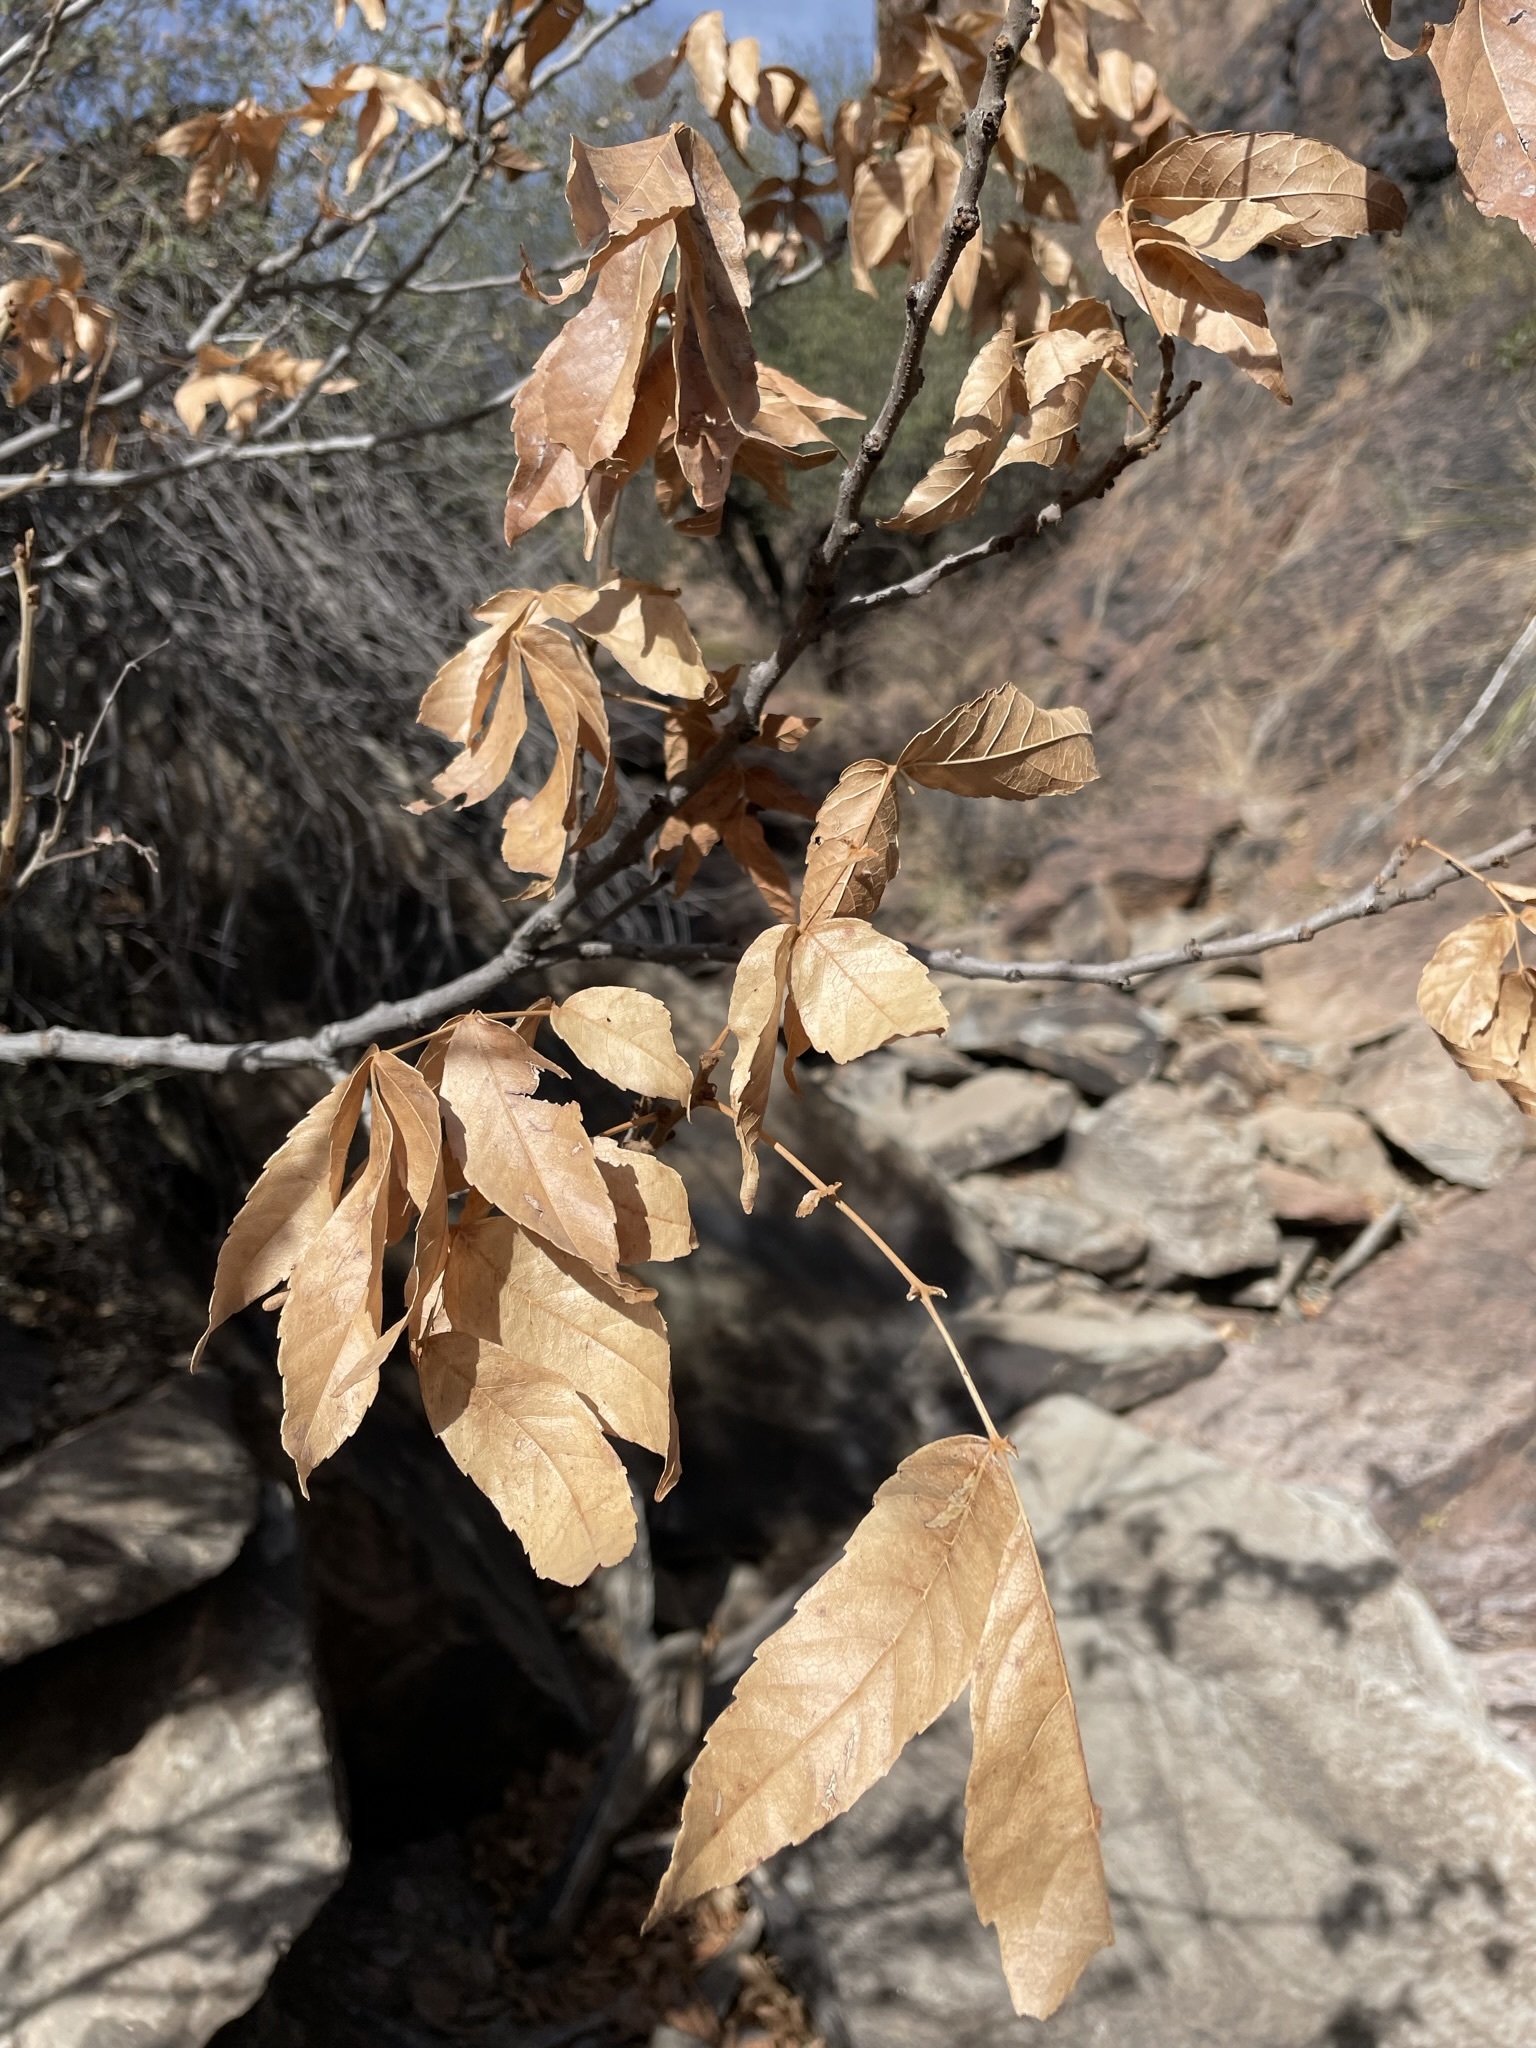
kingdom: Plantae
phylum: Tracheophyta
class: Magnoliopsida
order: Sapindales
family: Sapindaceae
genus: Ungnadia
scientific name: Ungnadia speciosa
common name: Texas-buckeye
